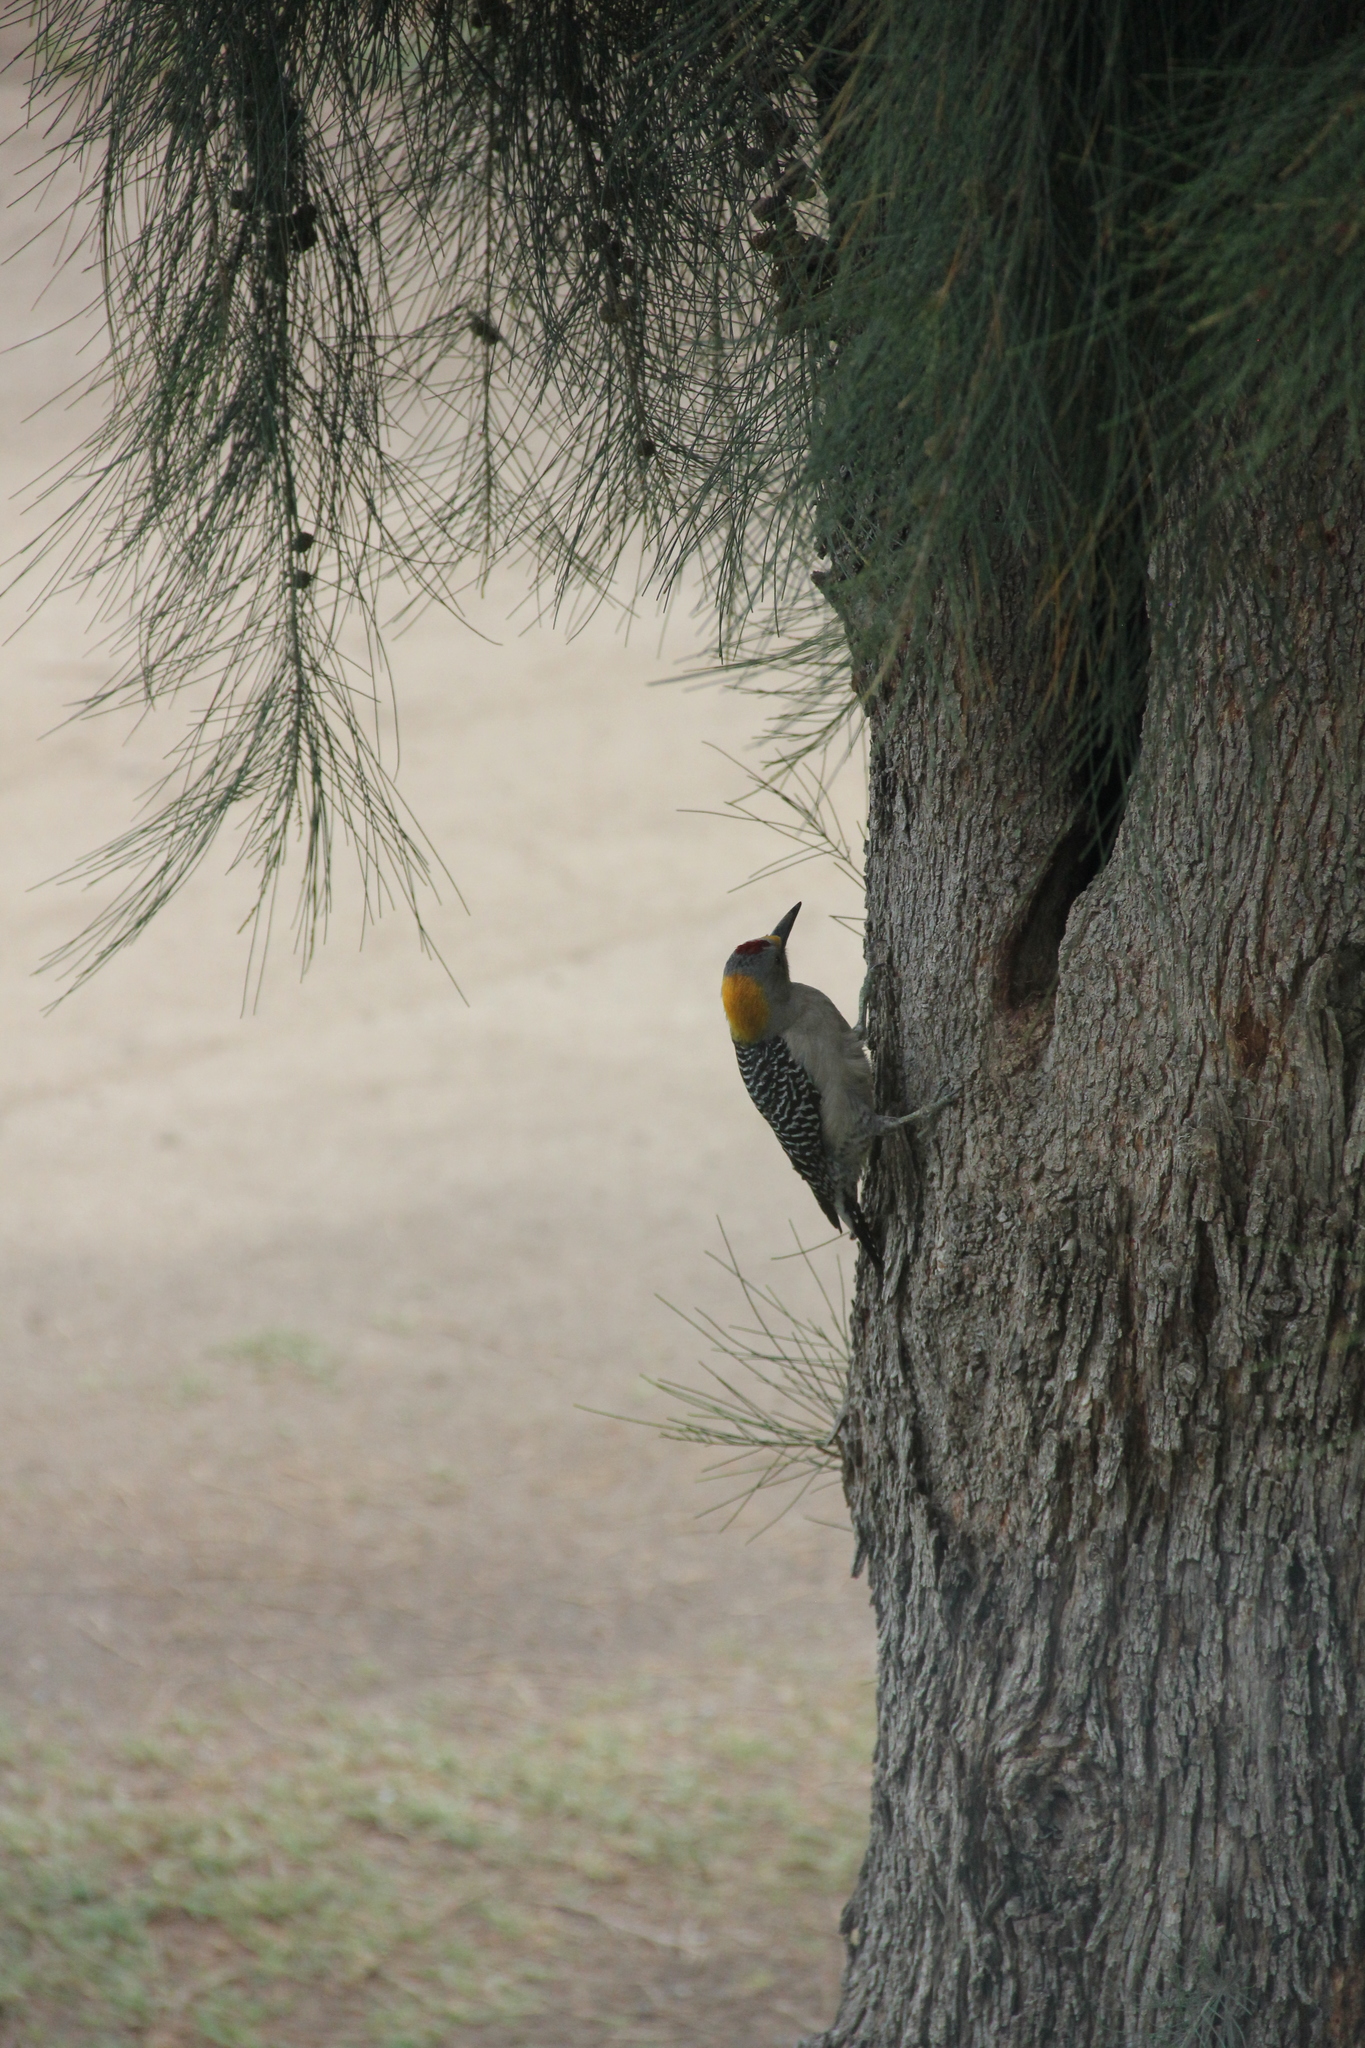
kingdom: Animalia
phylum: Chordata
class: Aves
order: Piciformes
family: Picidae
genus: Melanerpes
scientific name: Melanerpes aurifrons
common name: Golden-fronted woodpecker
